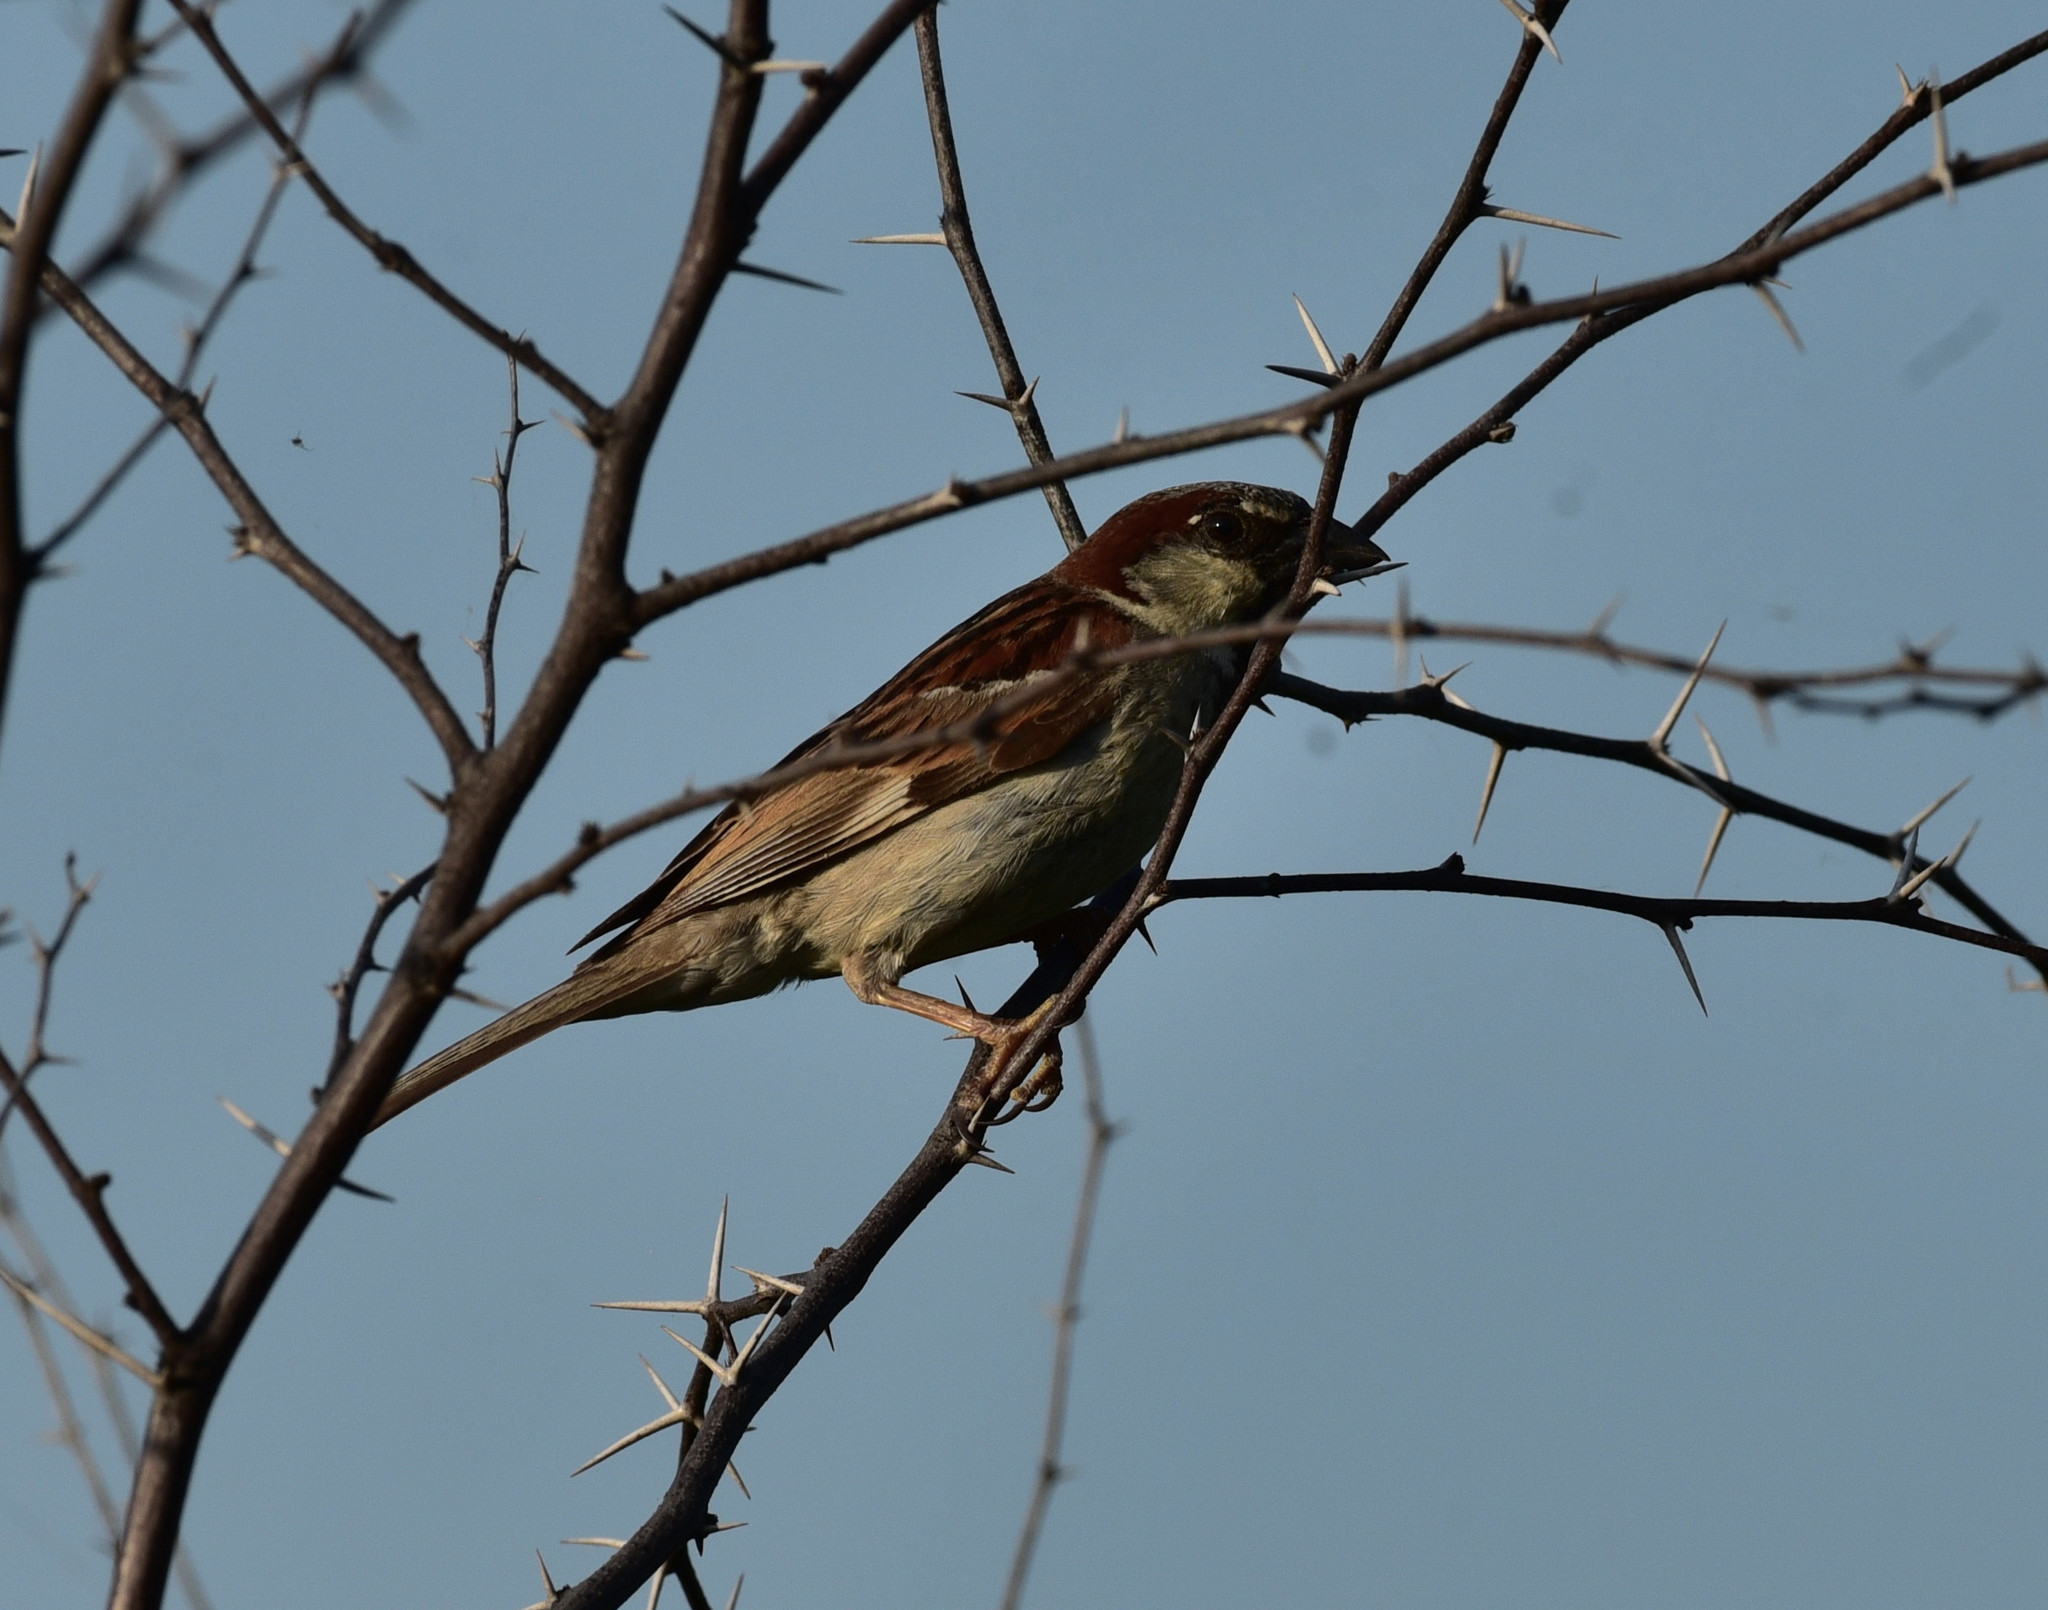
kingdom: Animalia
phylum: Chordata
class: Aves
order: Passeriformes
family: Passeridae
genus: Passer
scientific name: Passer domesticus
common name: House sparrow
